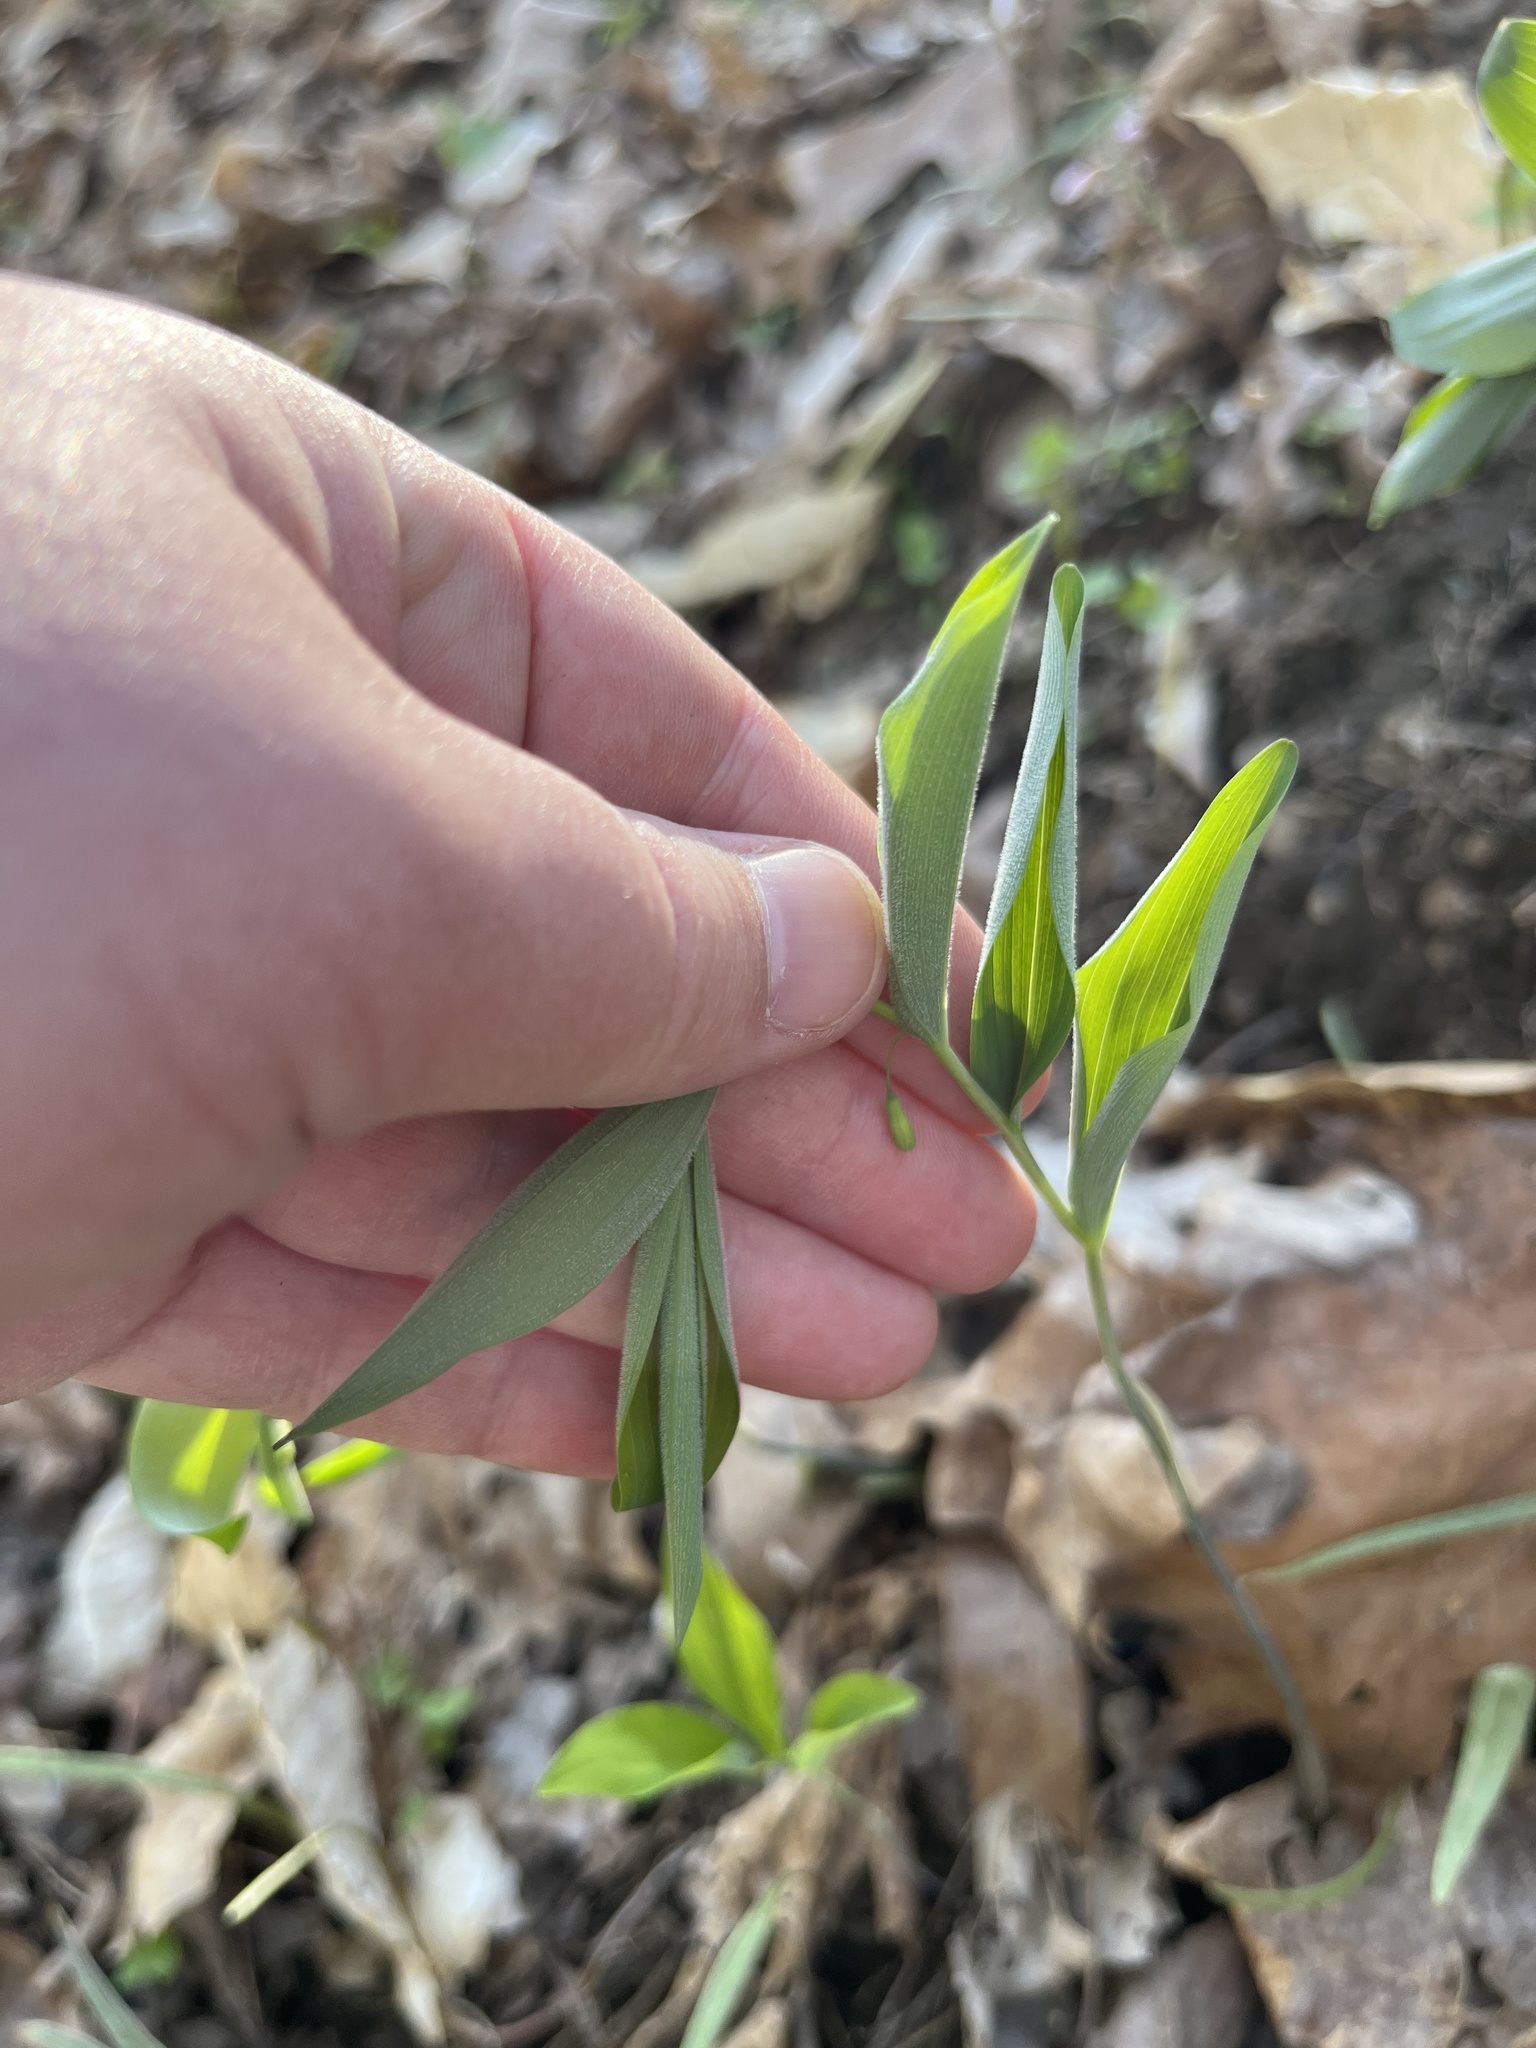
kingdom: Plantae
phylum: Tracheophyta
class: Liliopsida
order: Asparagales
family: Asparagaceae
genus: Polygonatum
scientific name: Polygonatum pubescens
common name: Downy solomon's seal
